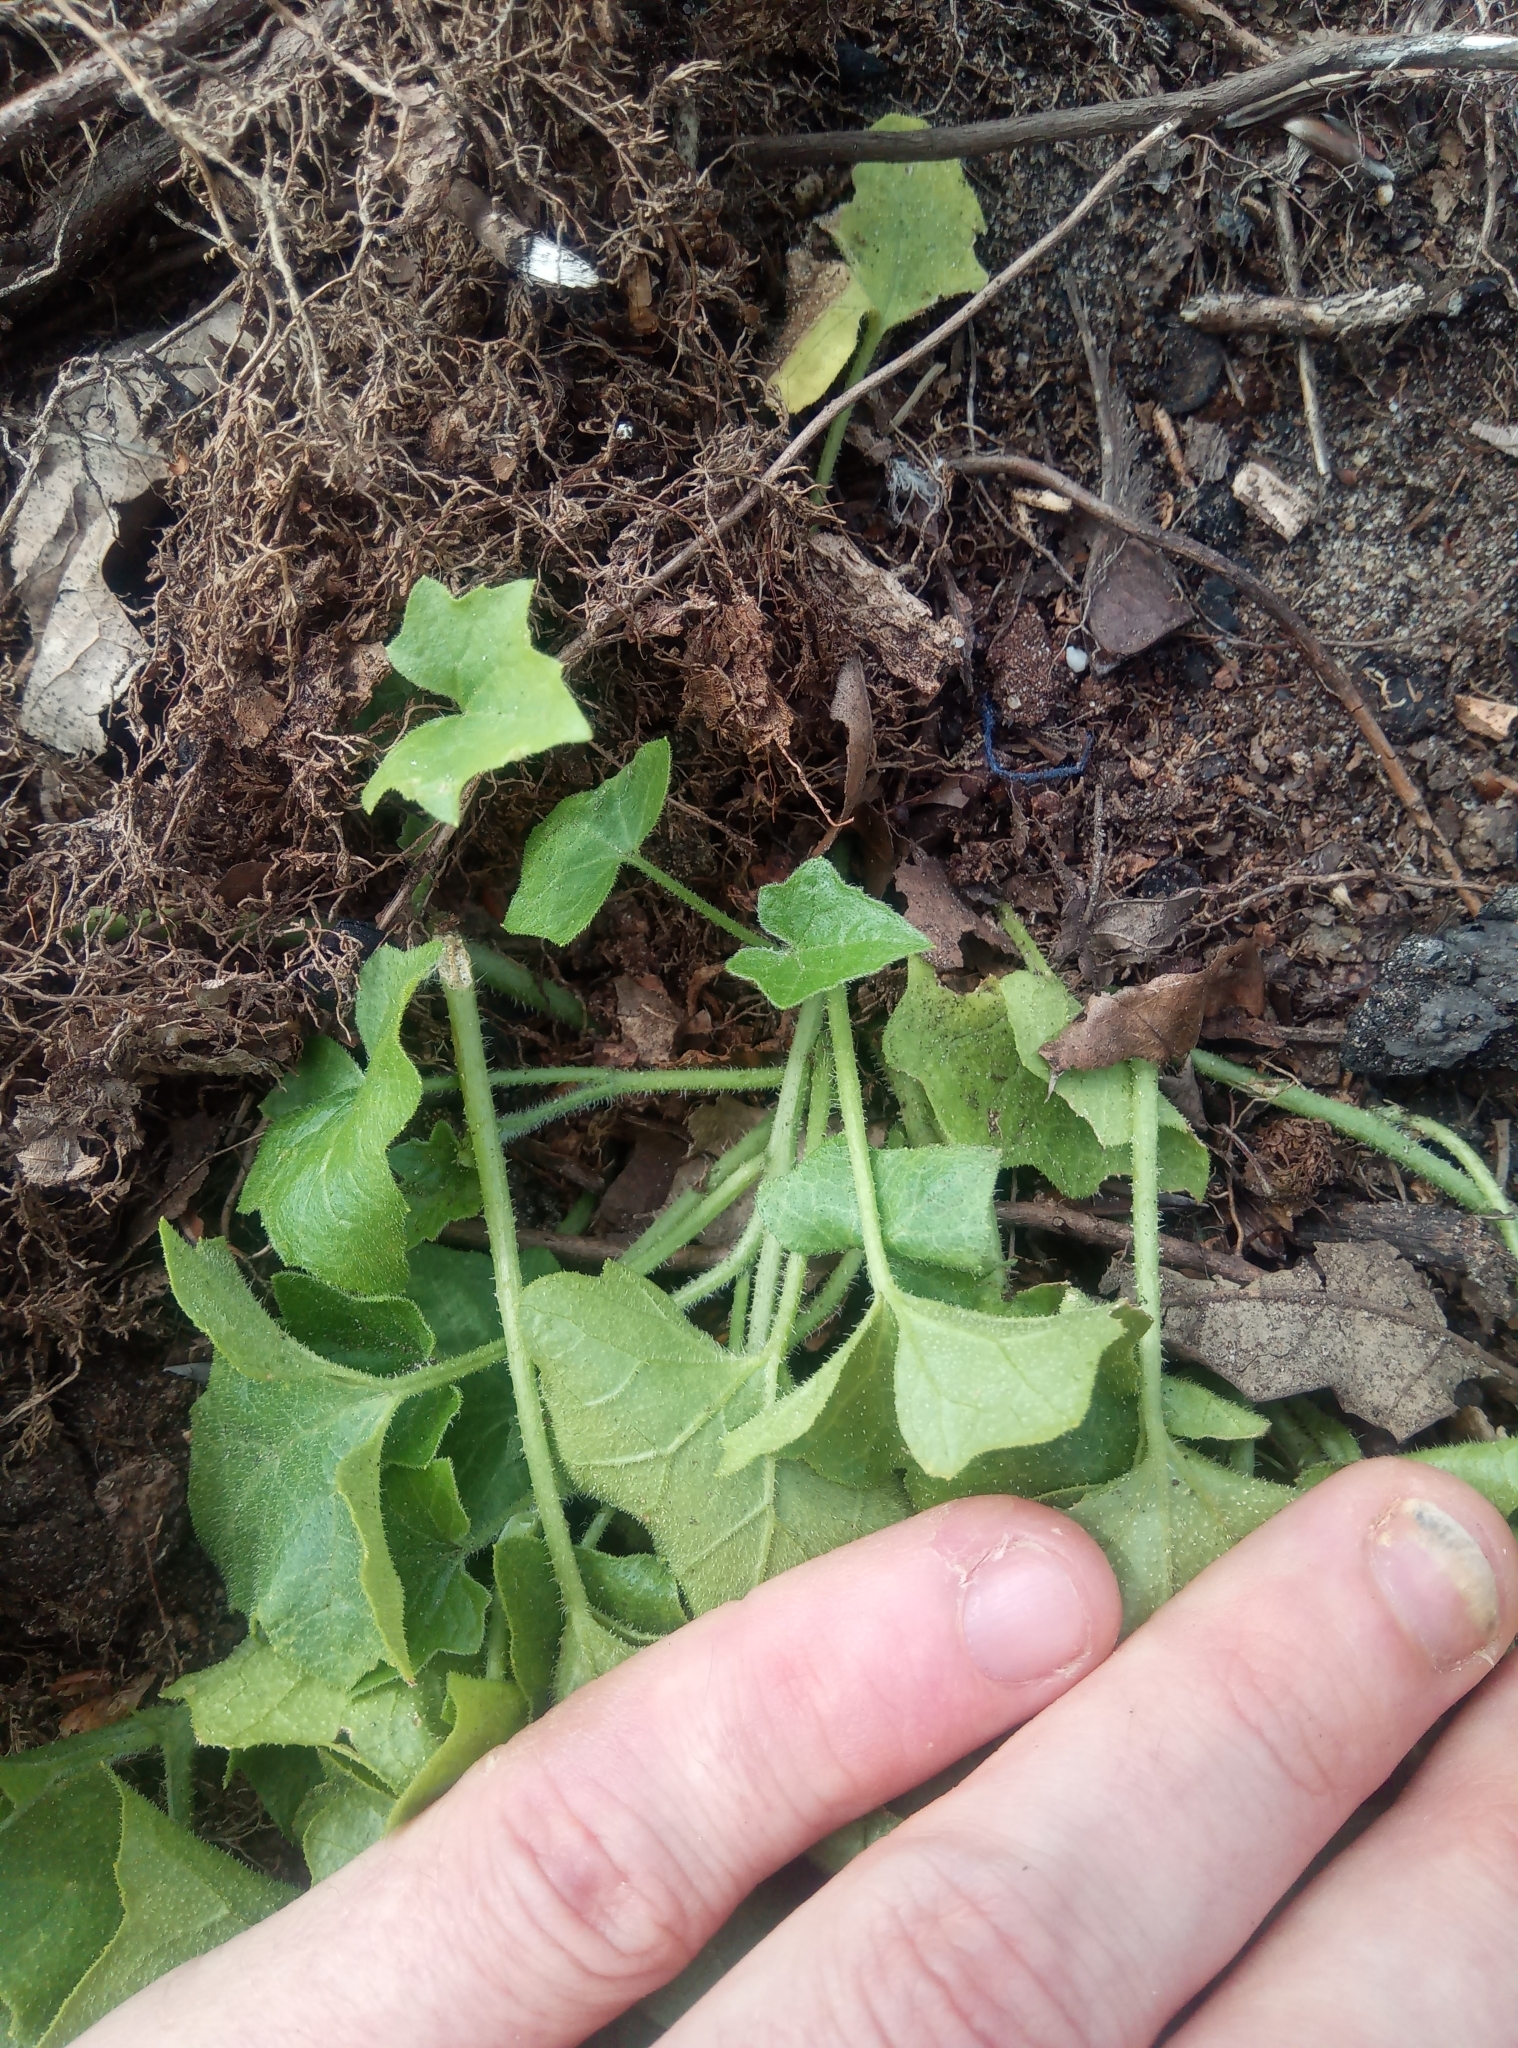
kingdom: Plantae
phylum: Tracheophyta
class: Magnoliopsida
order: Cucurbitales
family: Cucurbitaceae
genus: Bryonia
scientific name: Bryonia dioica
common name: White bryony
